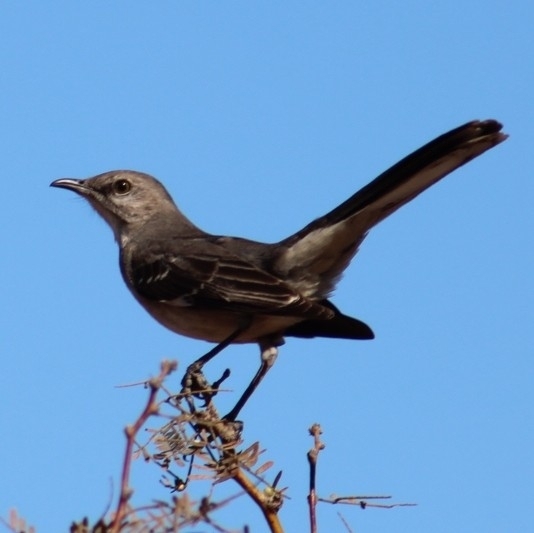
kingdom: Animalia
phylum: Chordata
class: Aves
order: Passeriformes
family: Mimidae
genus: Mimus
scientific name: Mimus polyglottos
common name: Northern mockingbird
